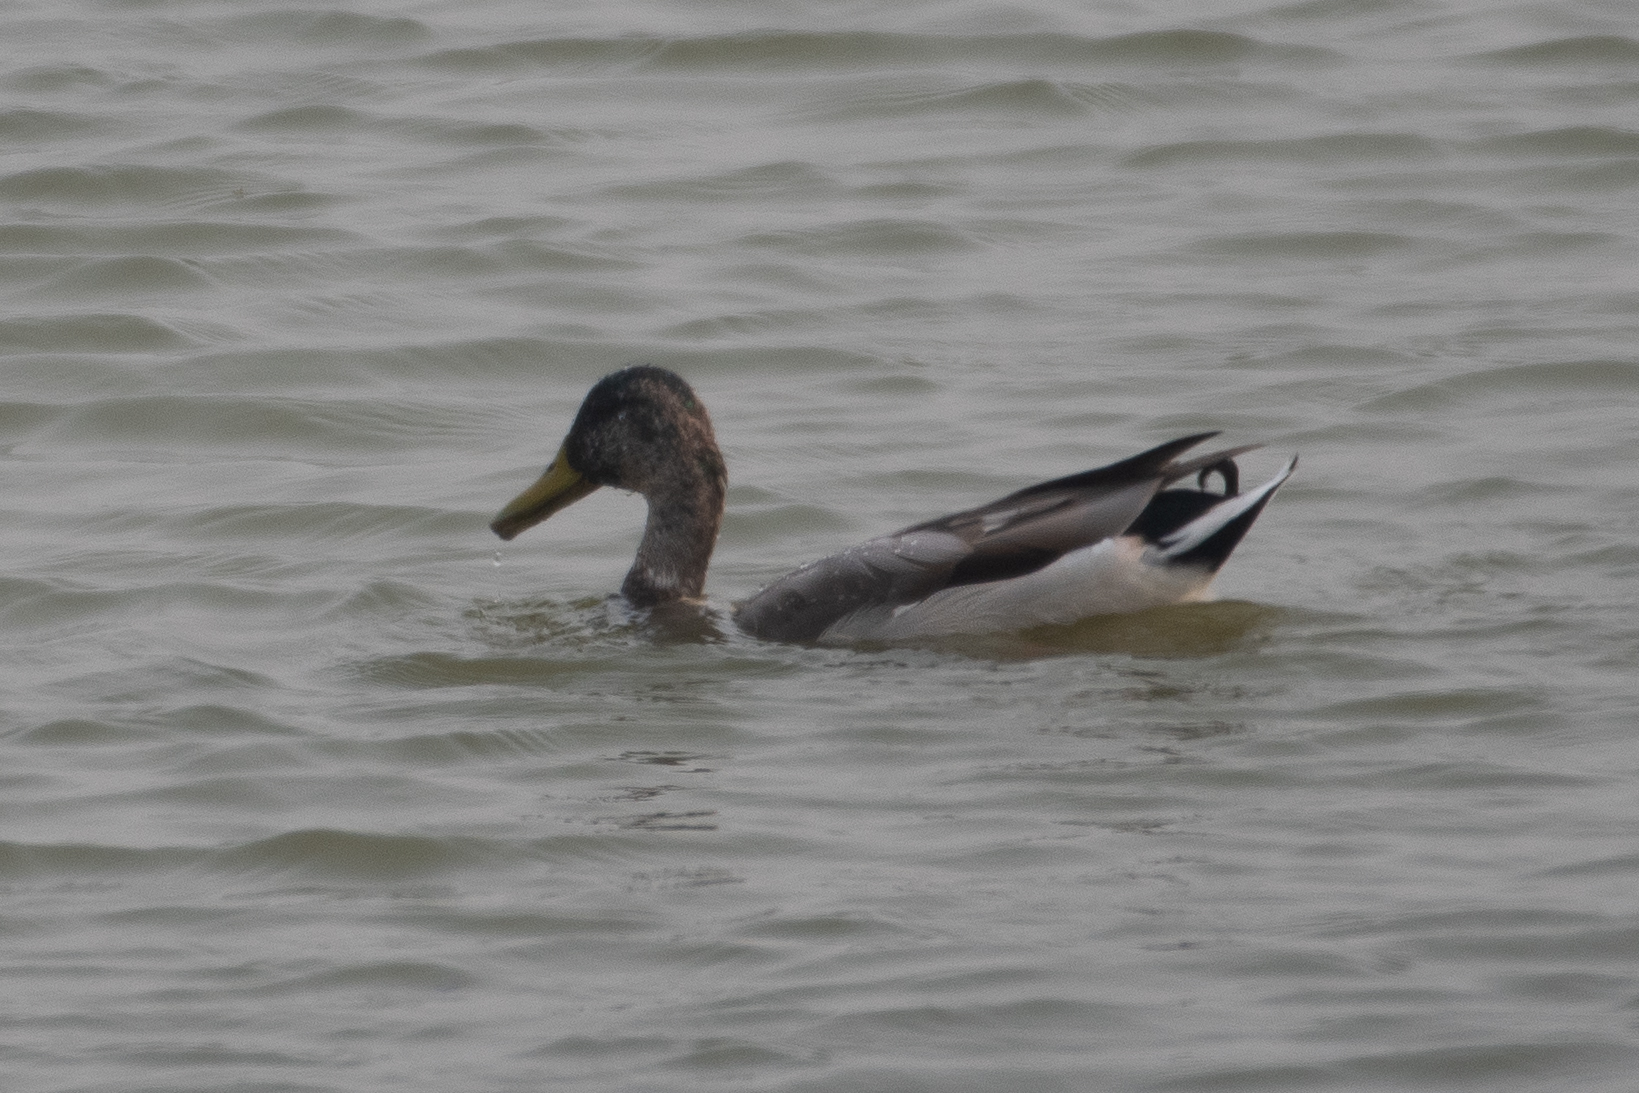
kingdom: Animalia
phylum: Chordata
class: Aves
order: Anseriformes
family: Anatidae
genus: Anas
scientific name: Anas platyrhynchos
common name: Mallard
